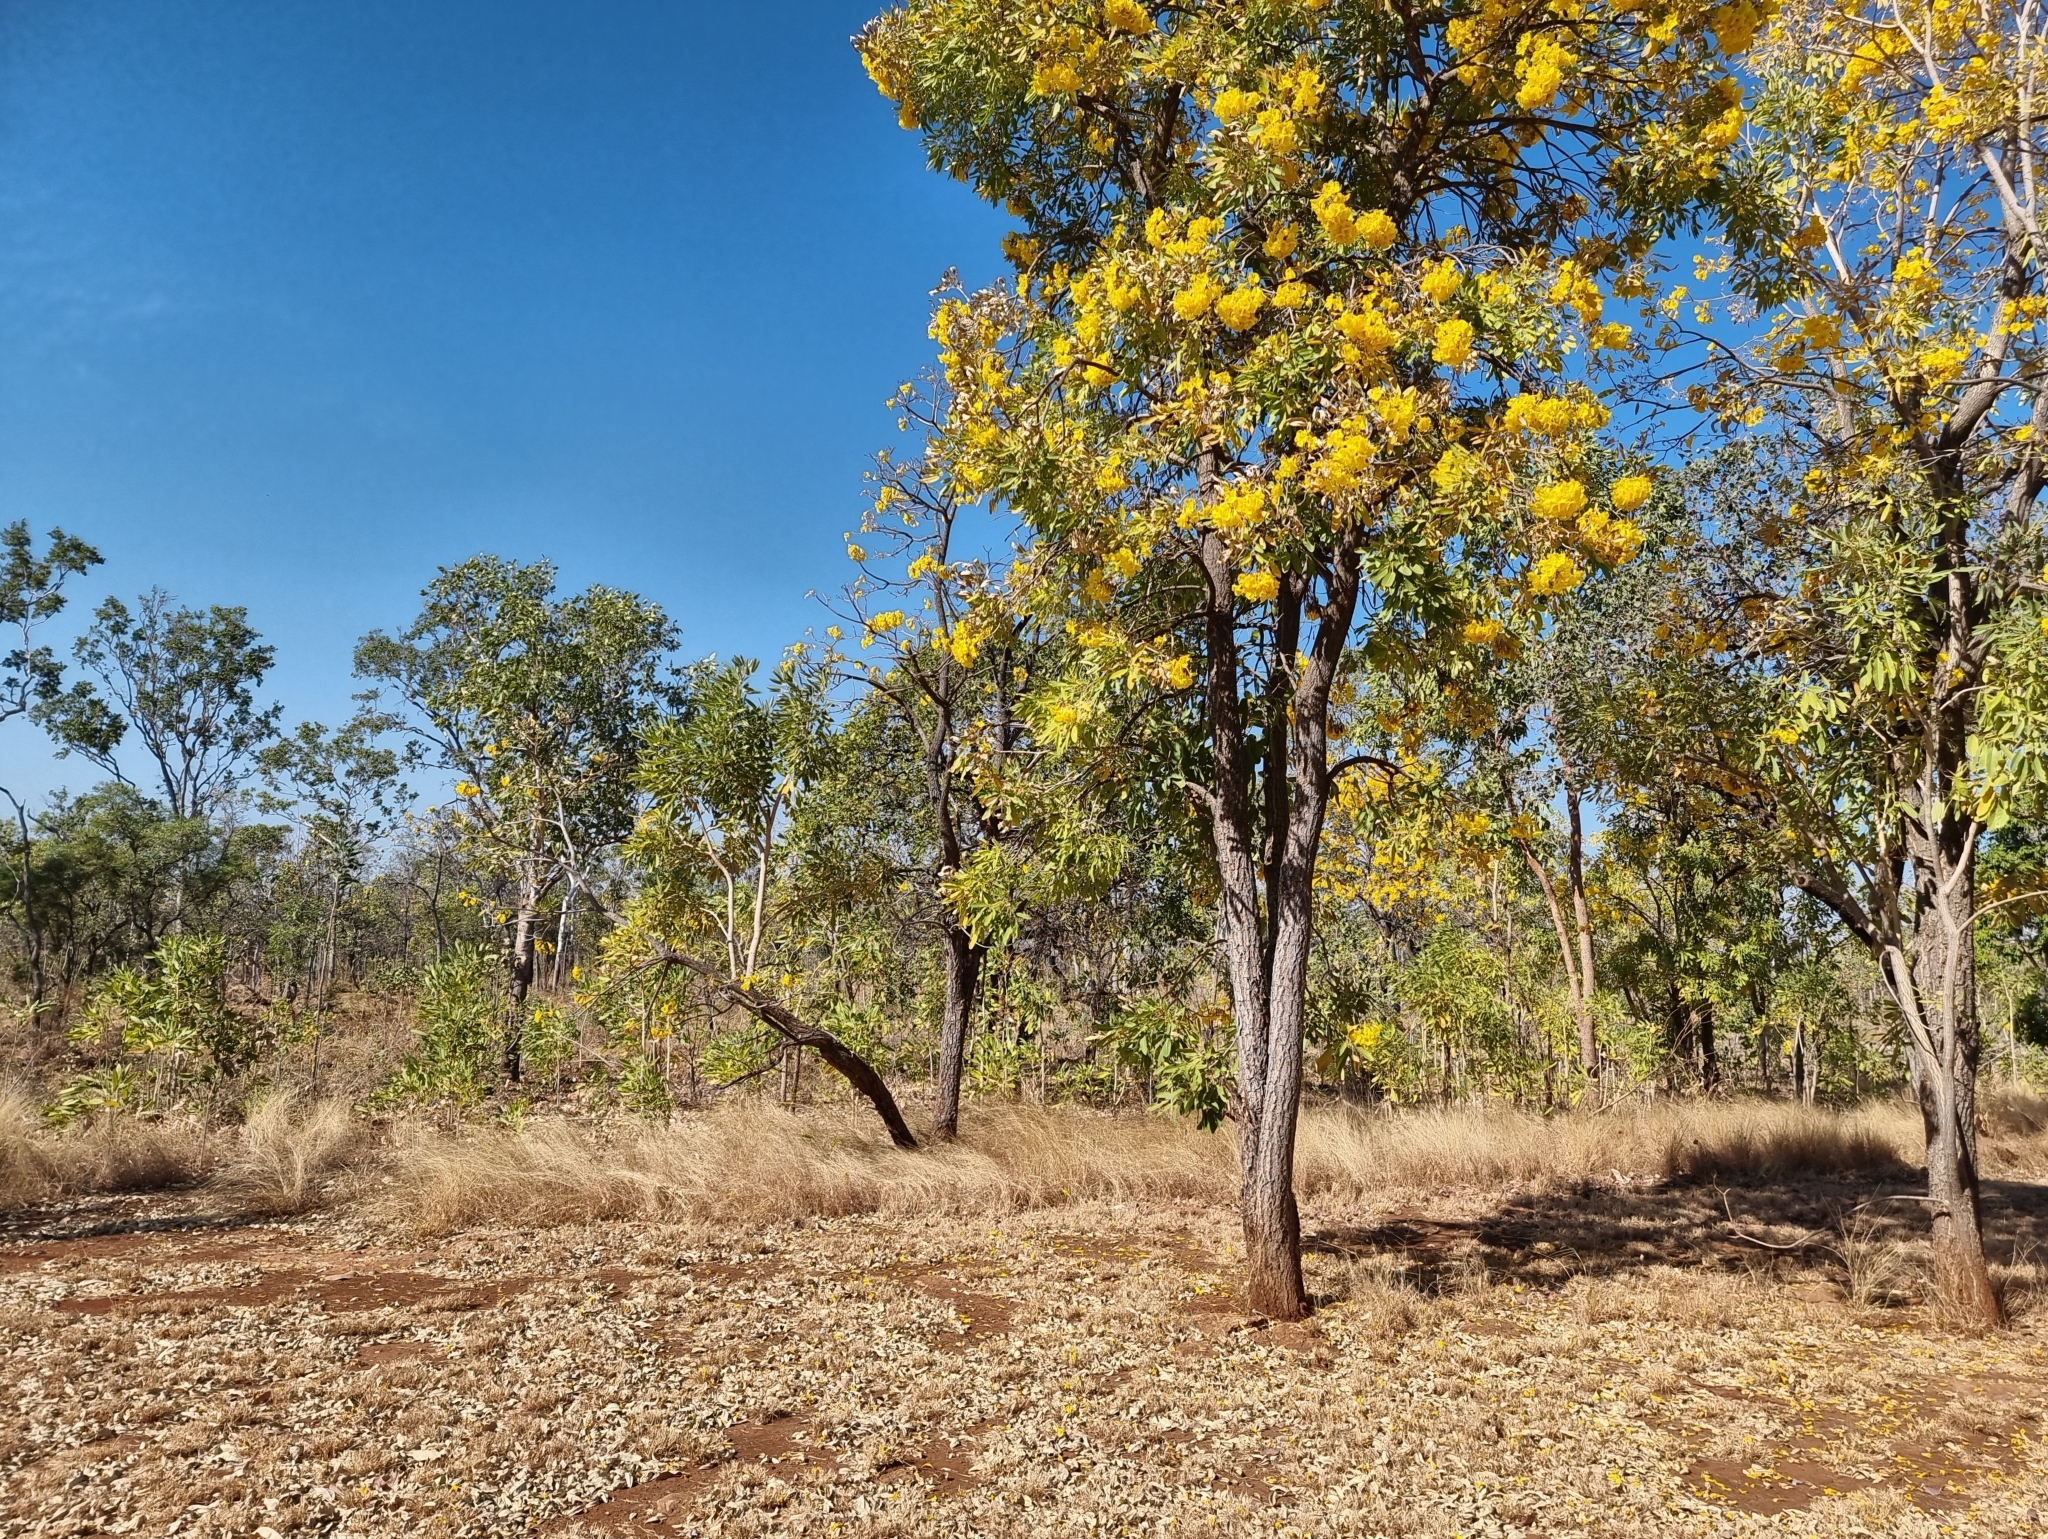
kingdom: Plantae
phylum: Tracheophyta
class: Magnoliopsida
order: Lamiales
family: Bignoniaceae
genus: Tabebuia
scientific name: Tabebuia aurea
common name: Caribbean trumpet-tree
